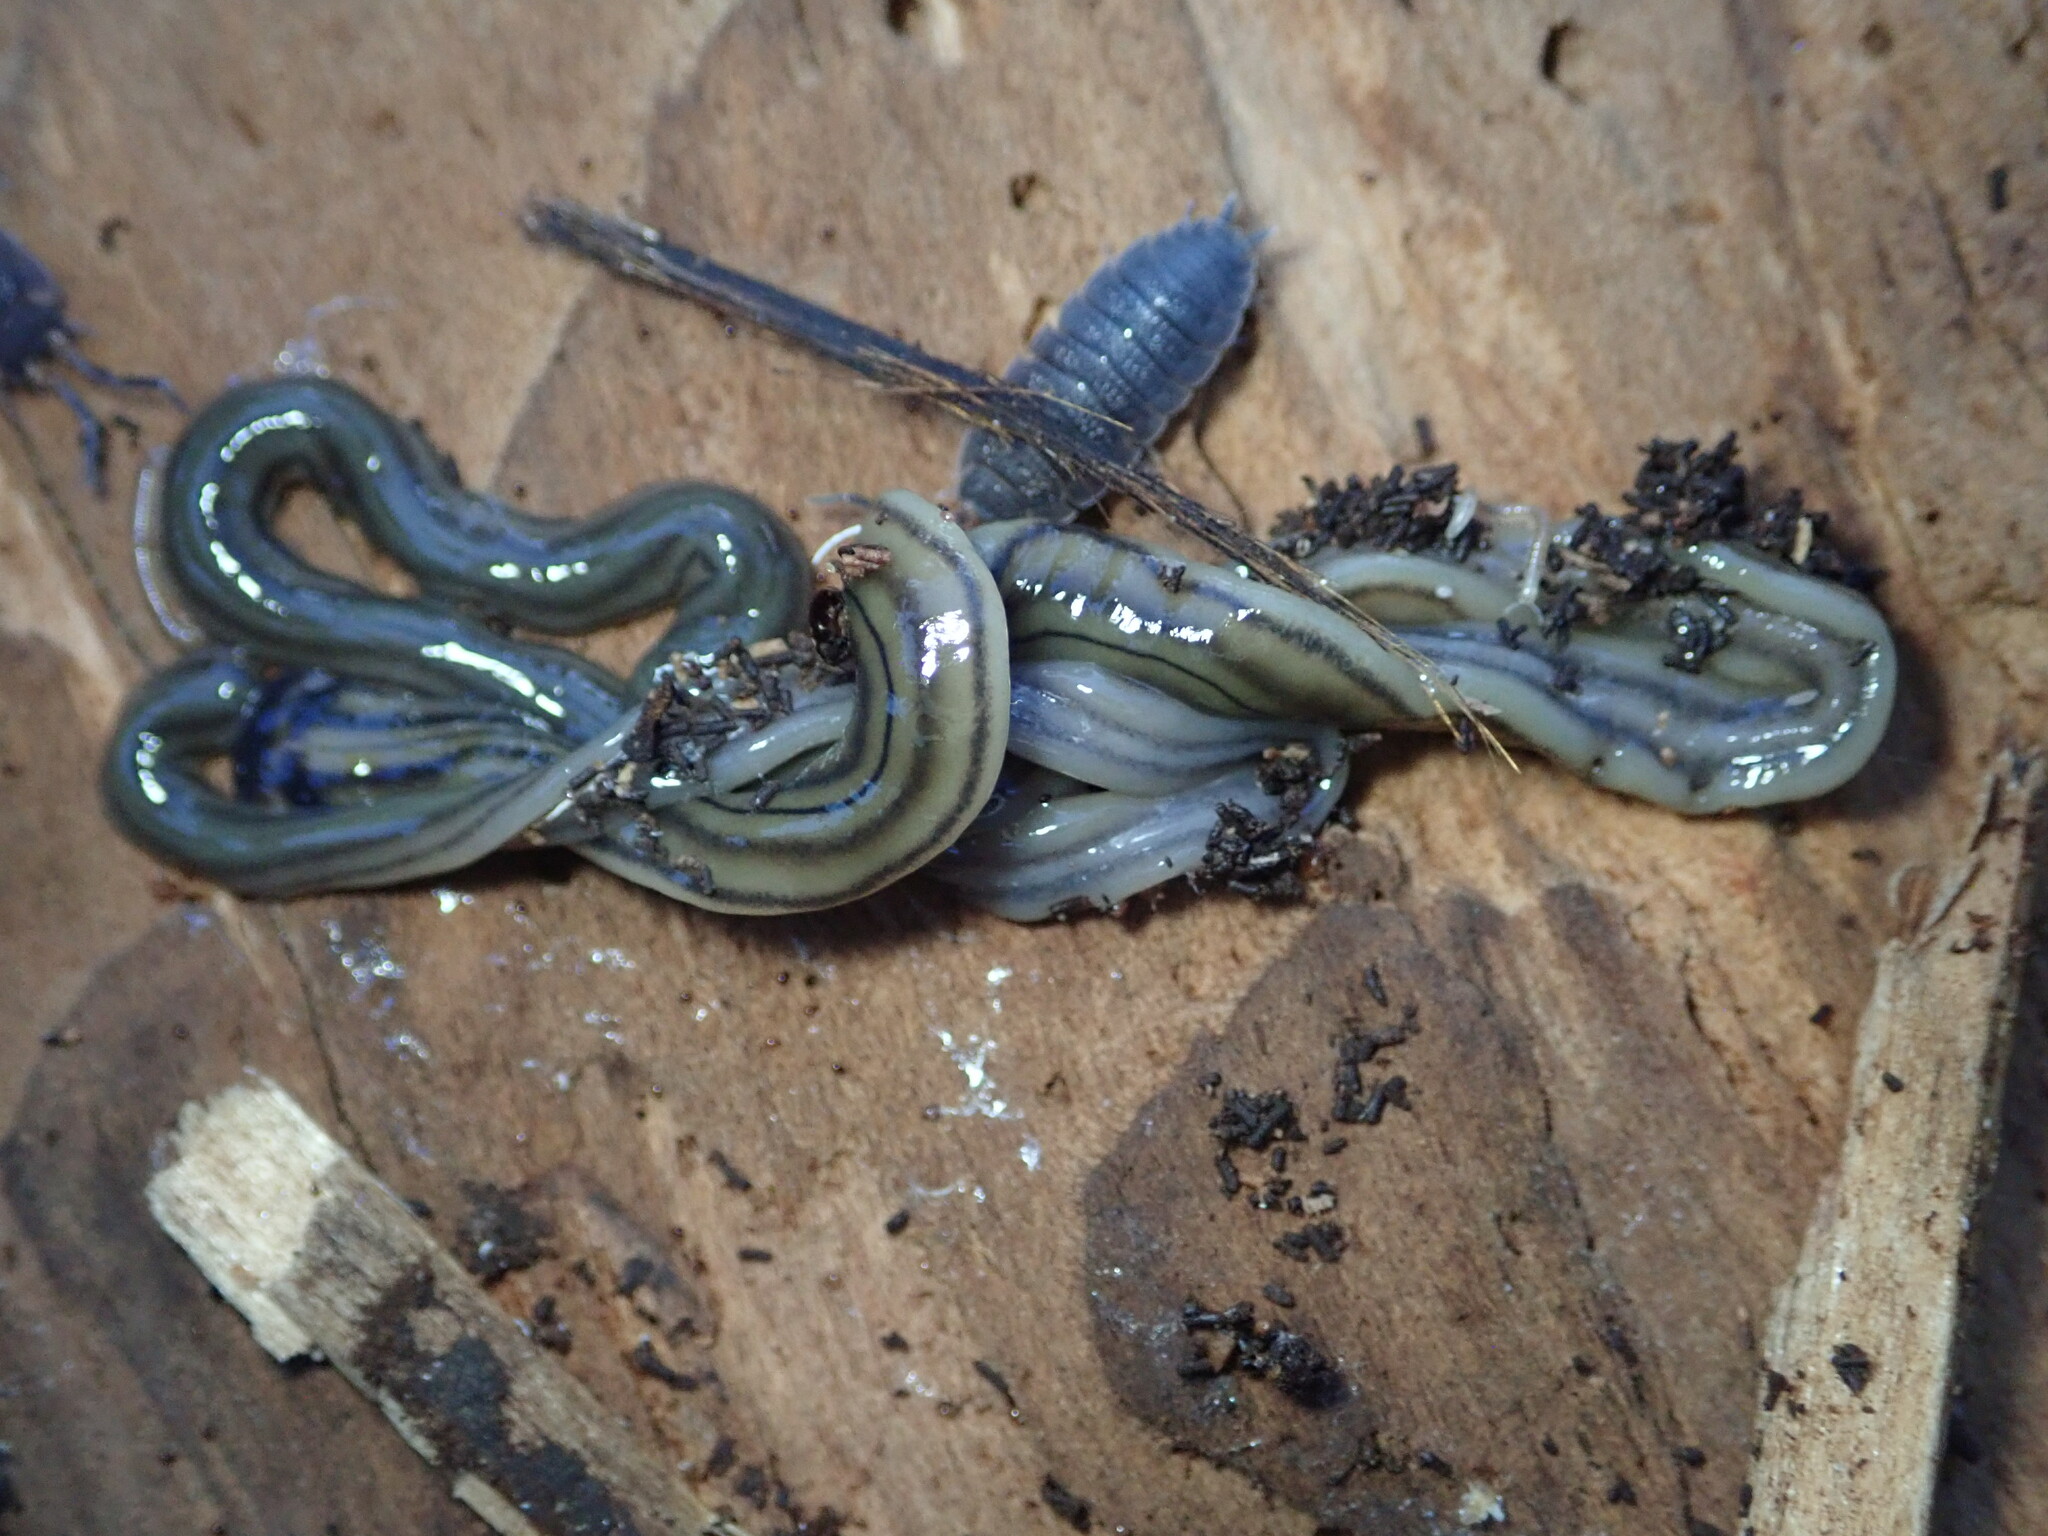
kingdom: Animalia
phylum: Platyhelminthes
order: Tricladida
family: Geoplanidae
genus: Bipalium
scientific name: Bipalium kewense
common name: Hammerhead flatworm
